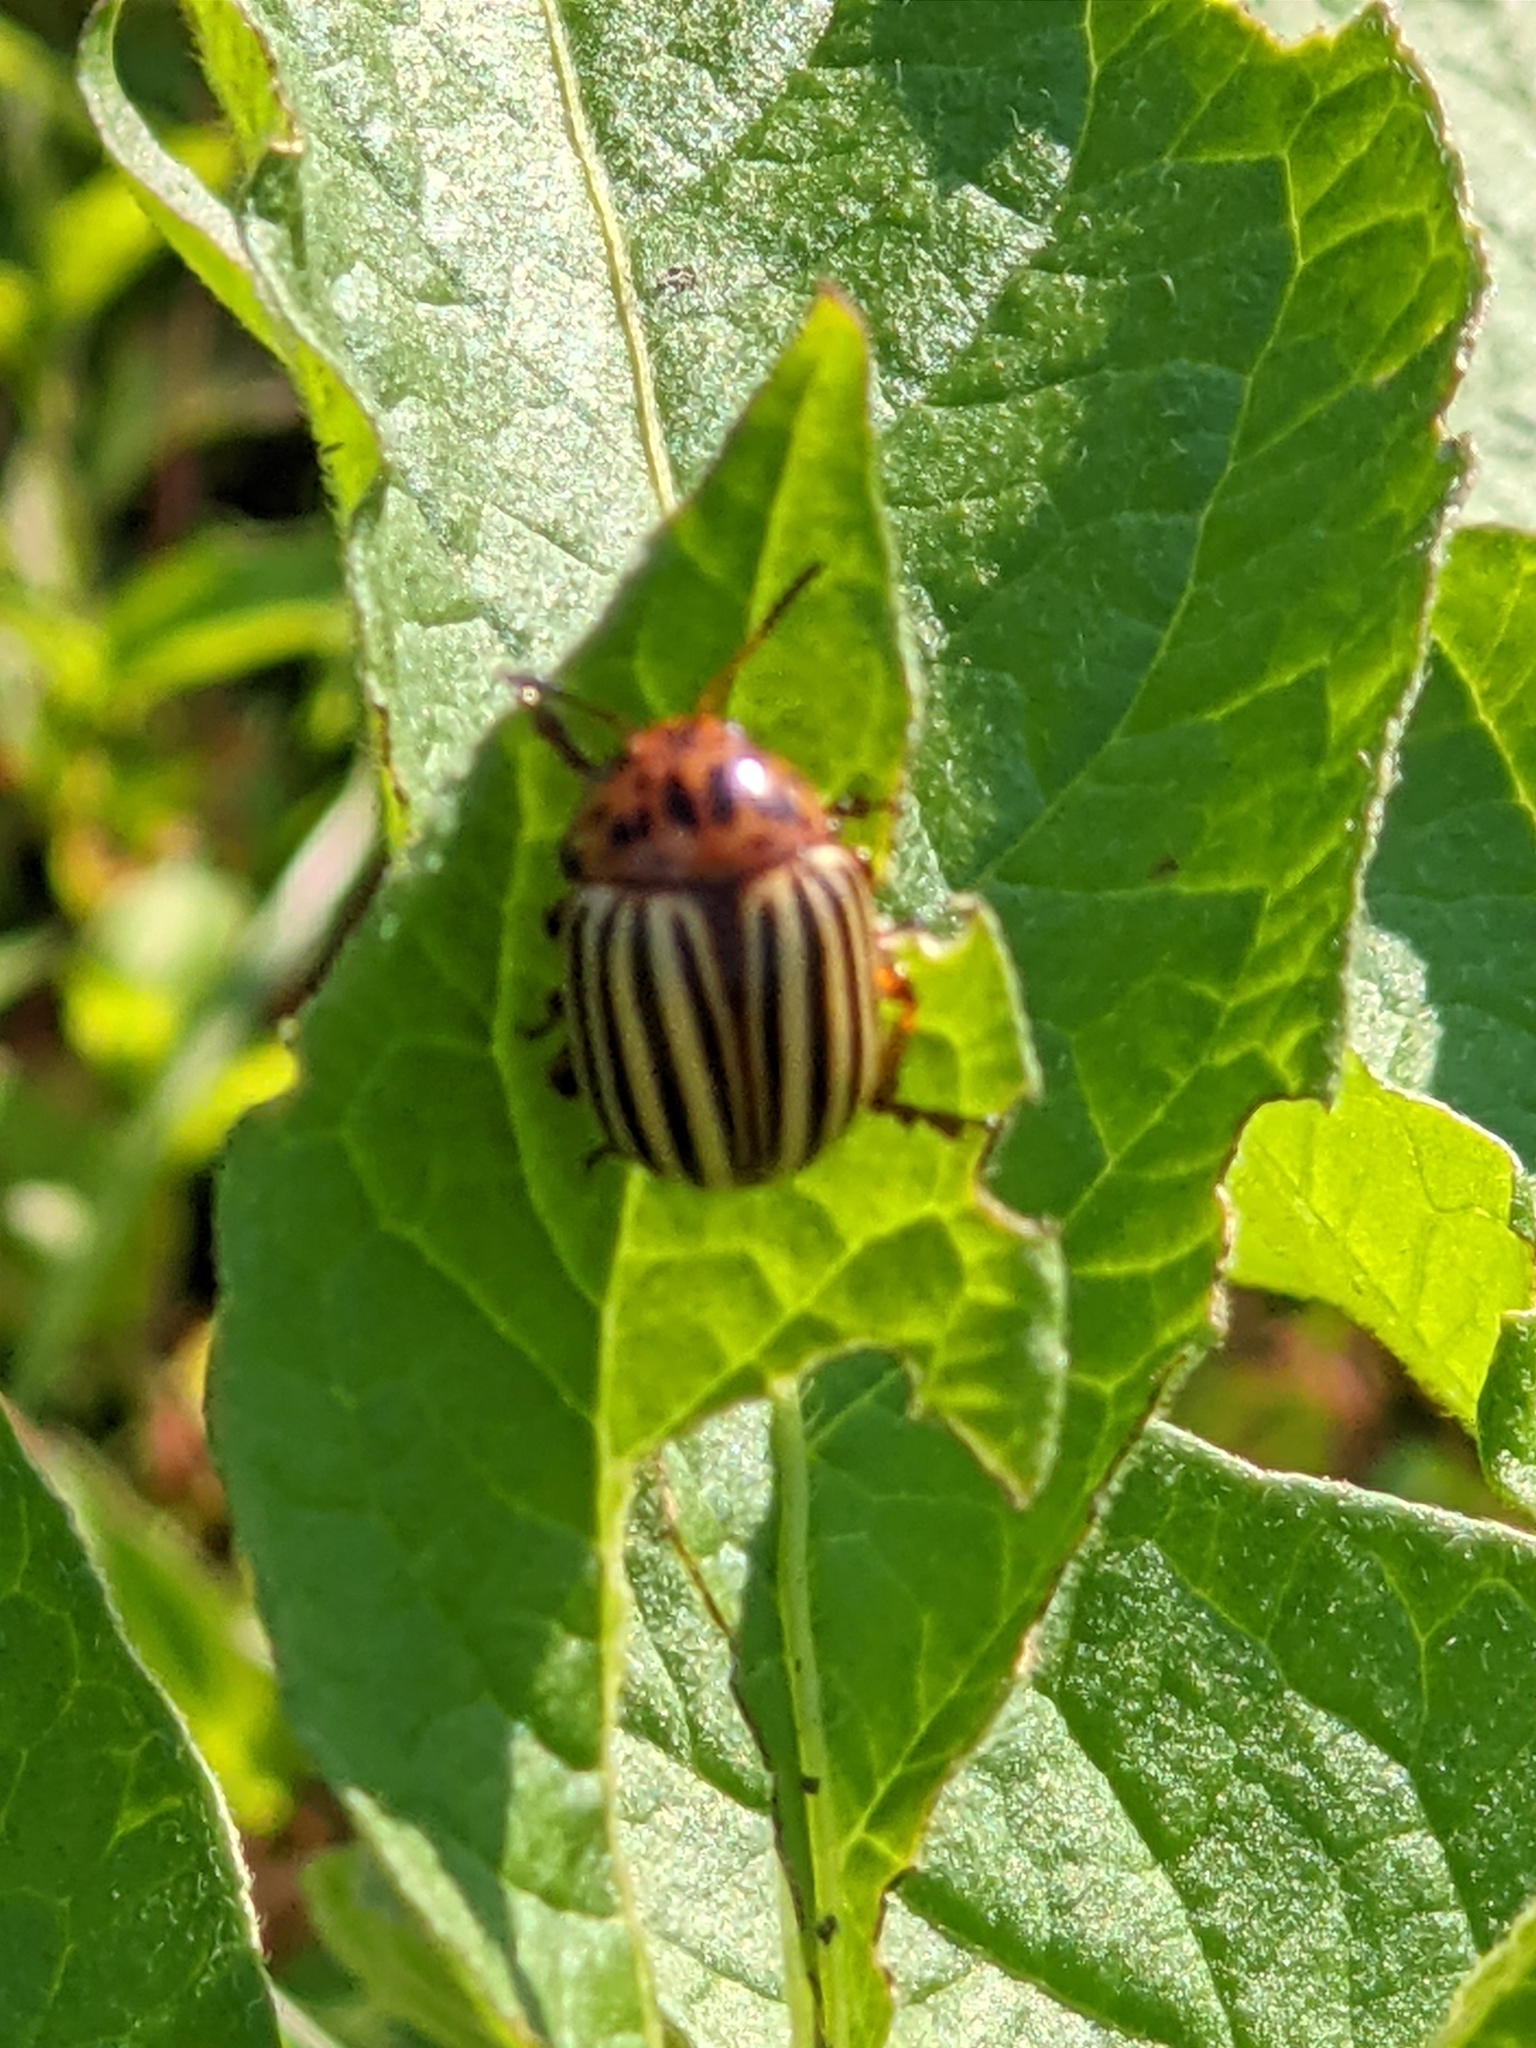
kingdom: Animalia
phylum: Arthropoda
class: Insecta
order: Coleoptera
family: Chrysomelidae
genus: Leptinotarsa
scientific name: Leptinotarsa decemlineata
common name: Colorado potato beetle
